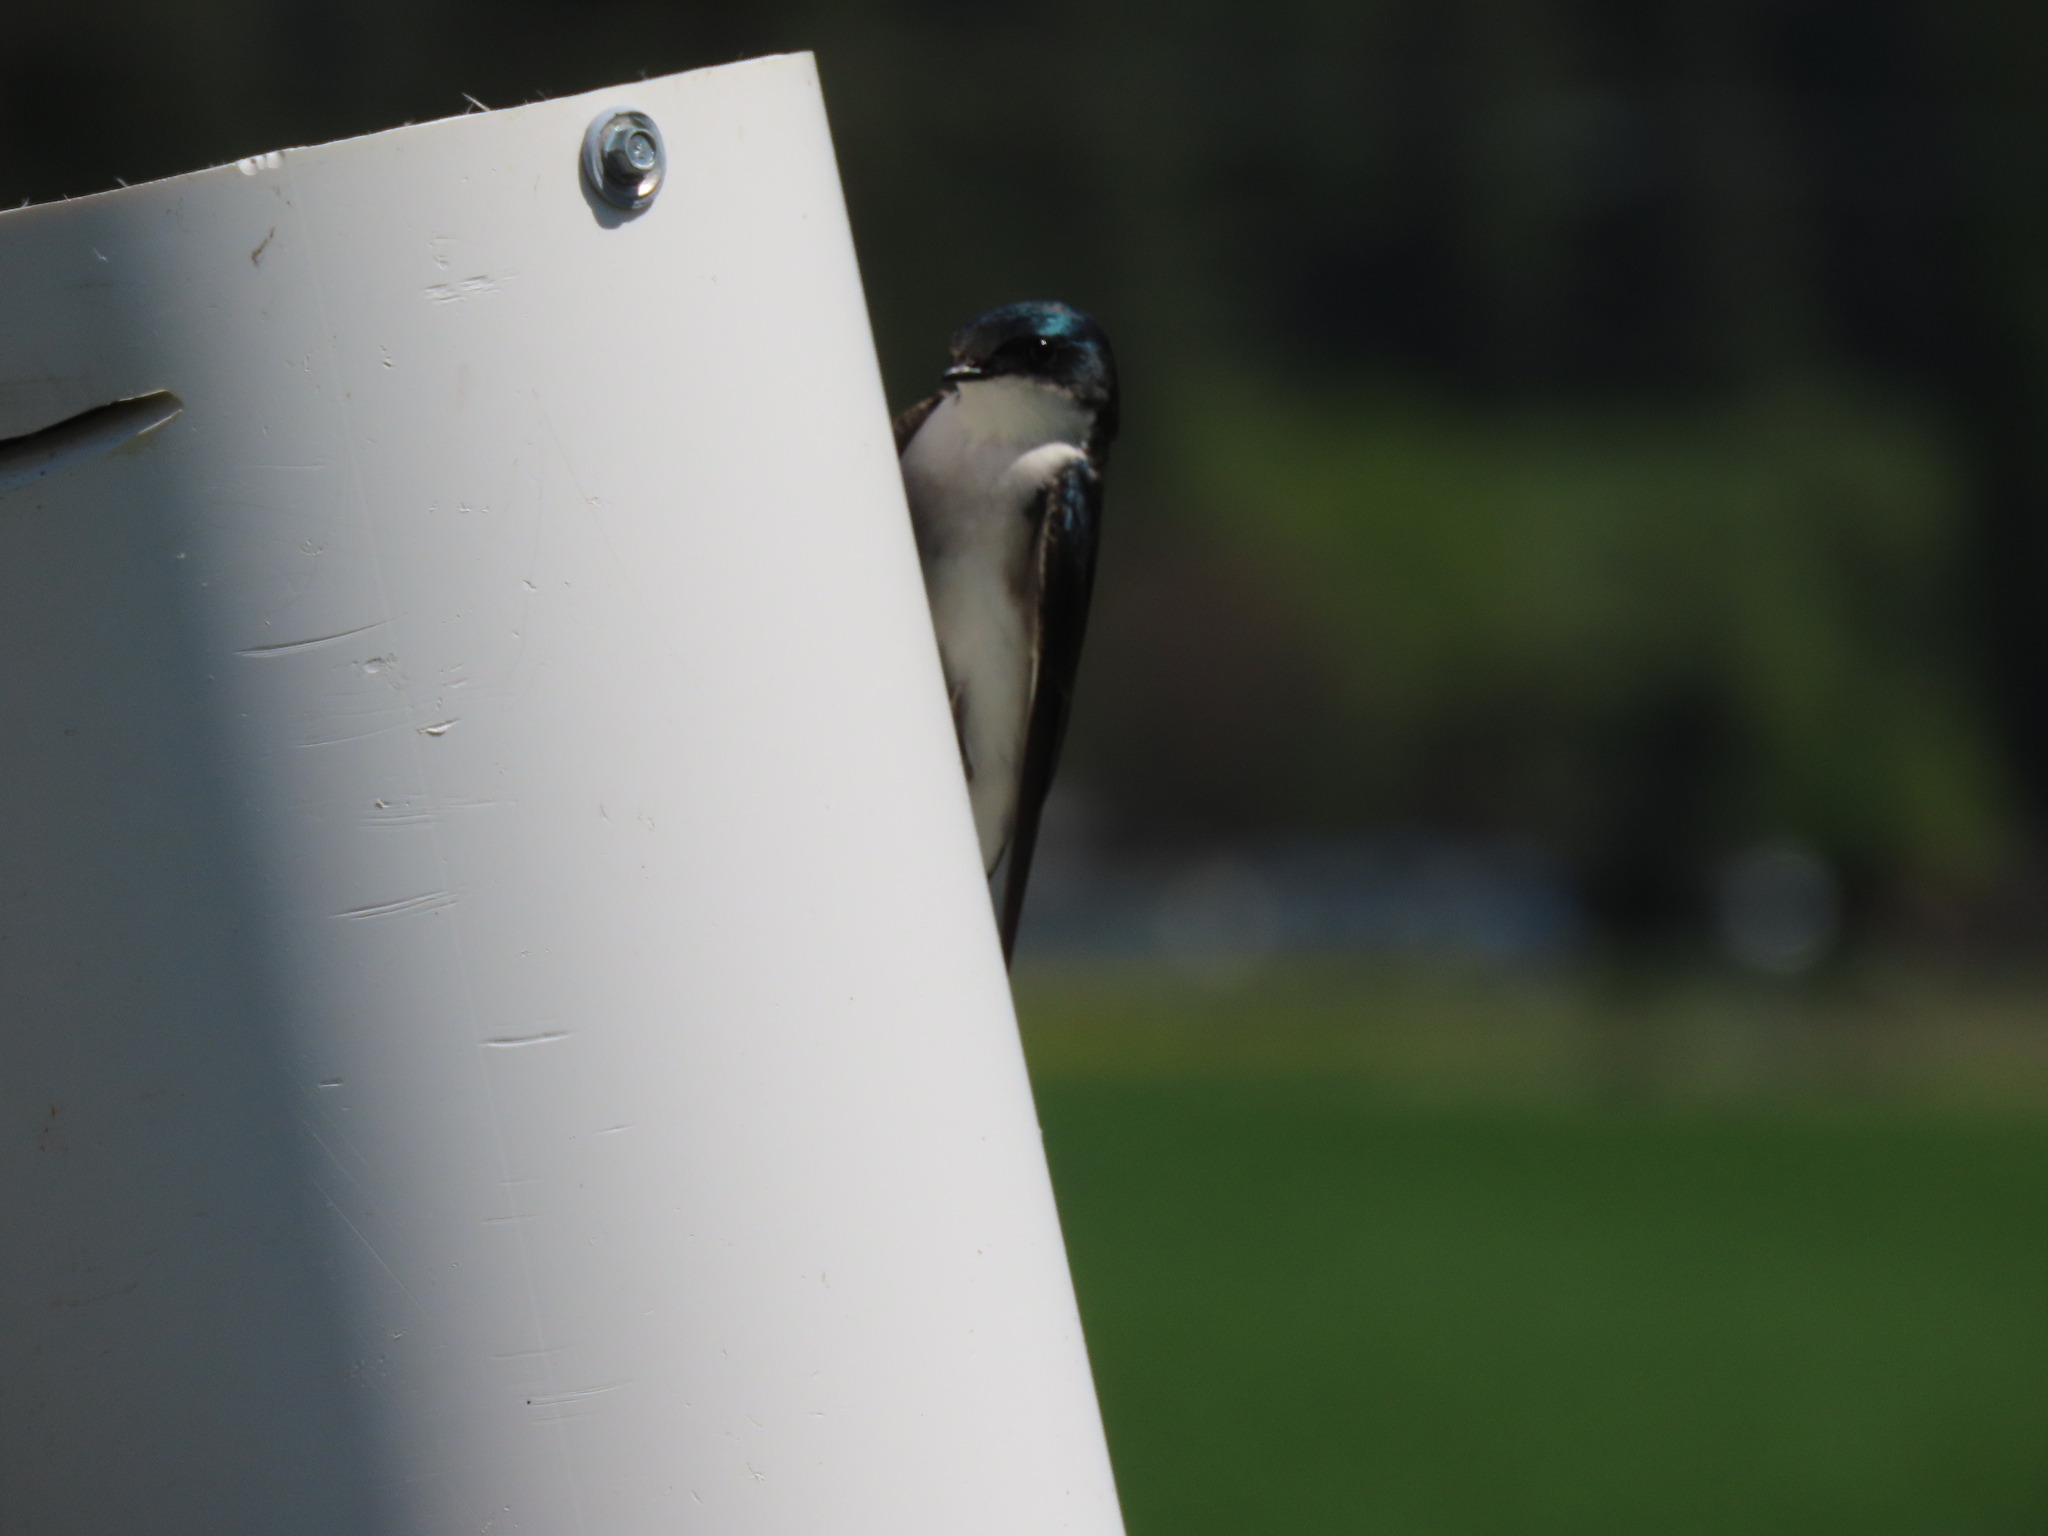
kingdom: Animalia
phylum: Chordata
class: Aves
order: Passeriformes
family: Hirundinidae
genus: Tachycineta
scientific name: Tachycineta bicolor
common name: Tree swallow
